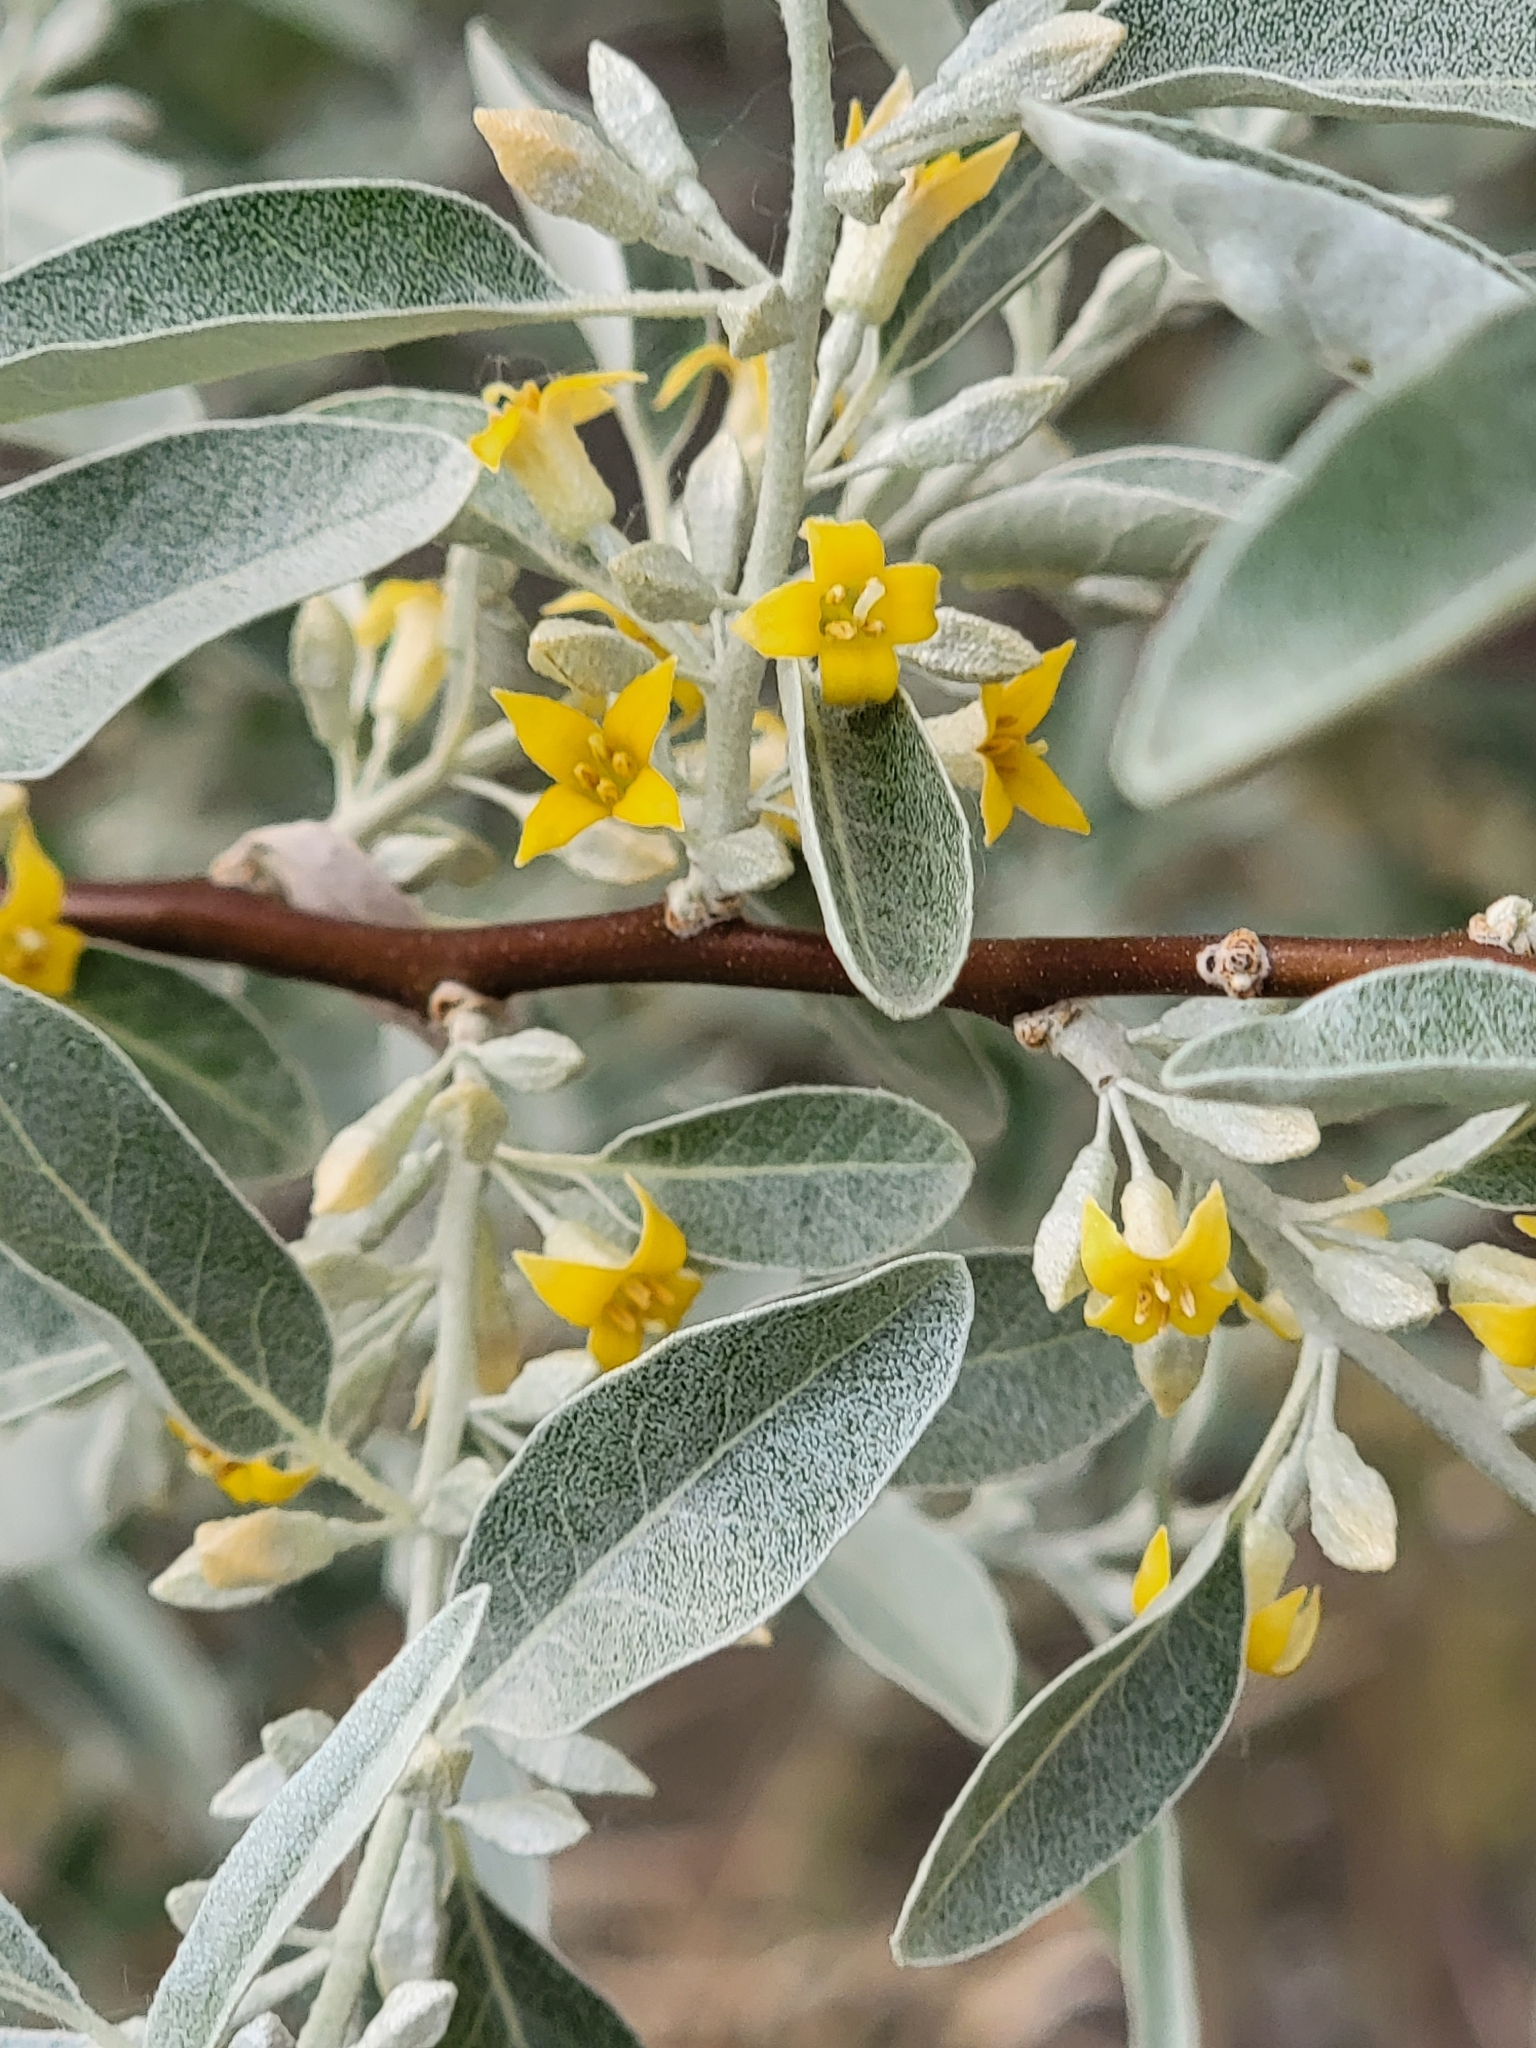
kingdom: Plantae
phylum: Tracheophyta
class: Magnoliopsida
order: Rosales
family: Elaeagnaceae
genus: Elaeagnus
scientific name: Elaeagnus angustifolia
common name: Russian olive
